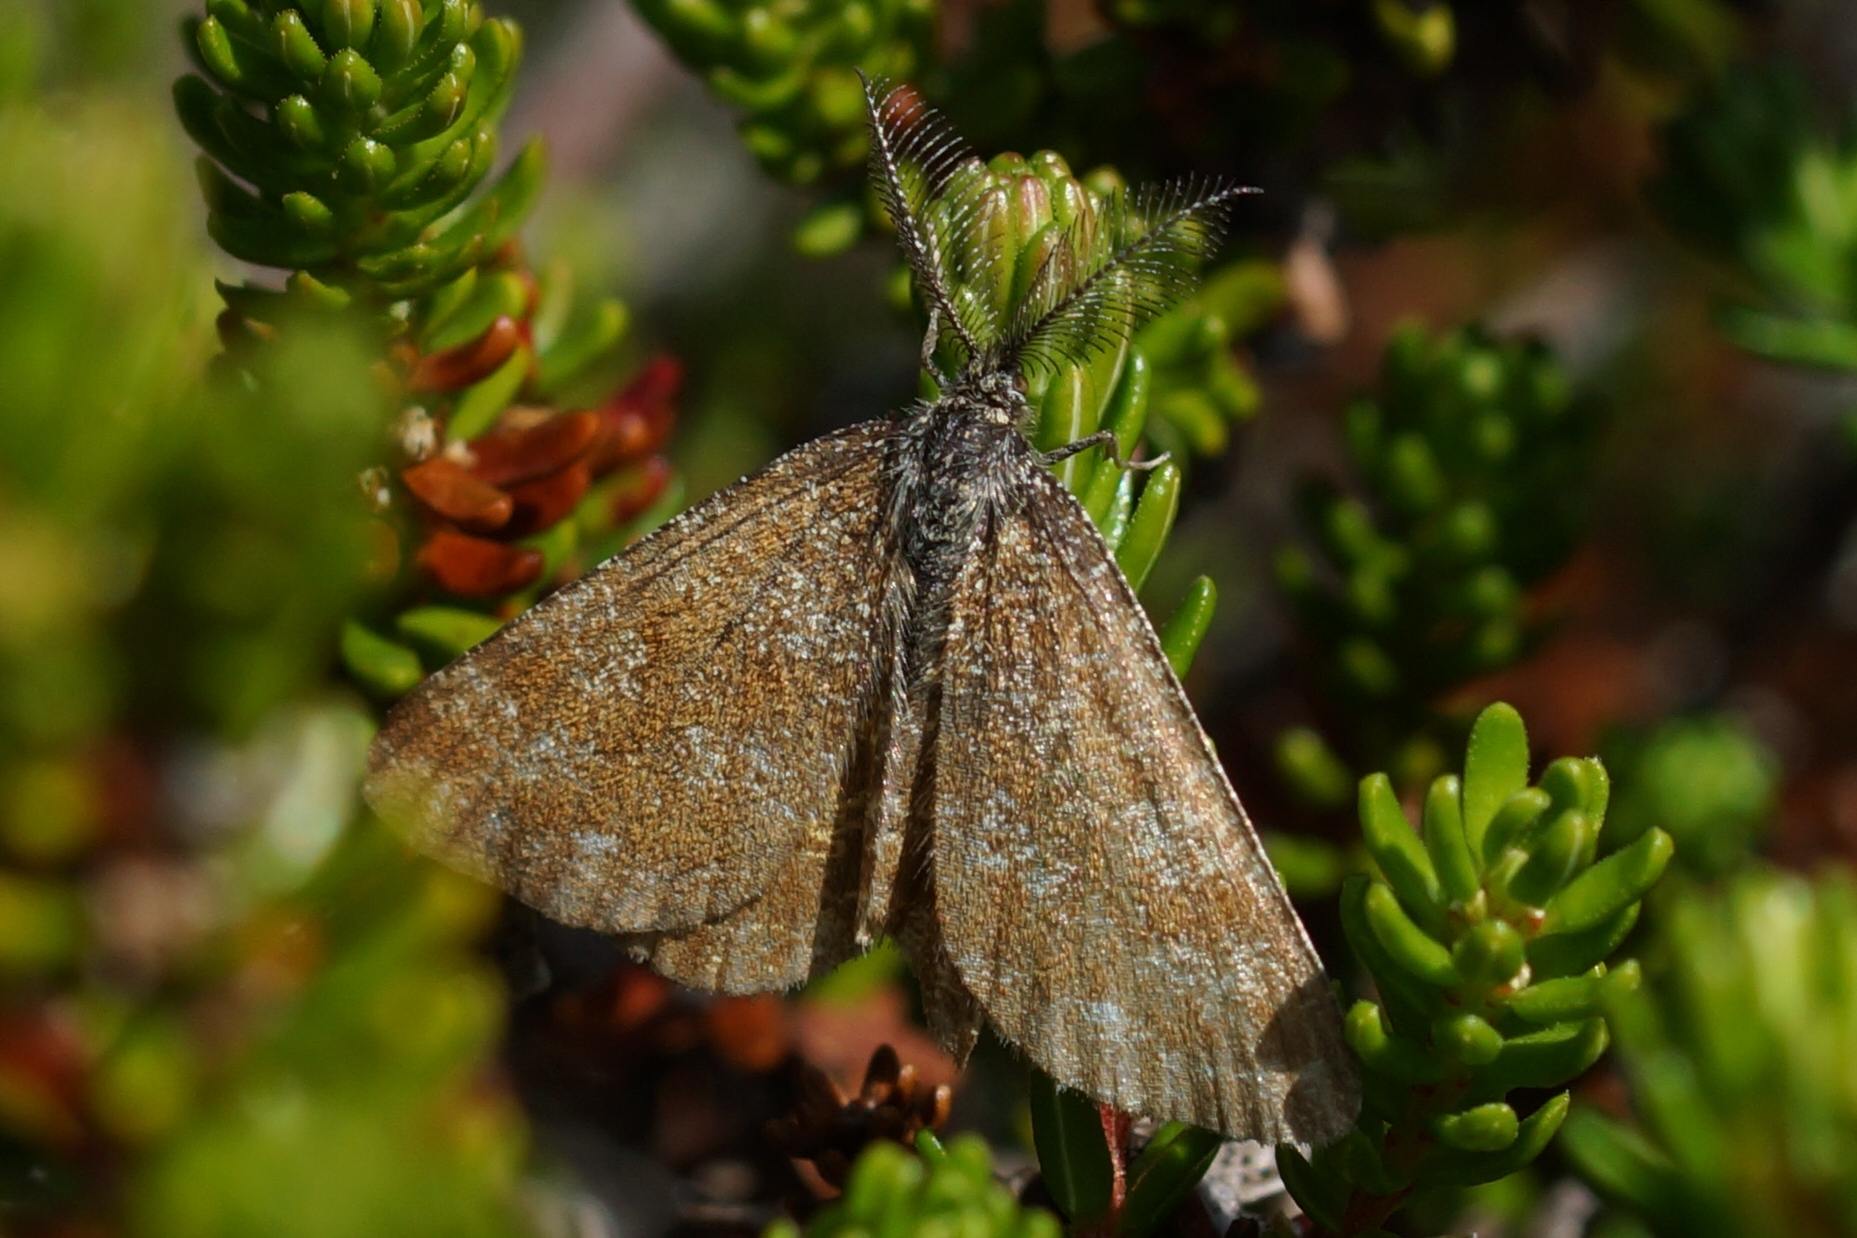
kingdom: Animalia
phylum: Arthropoda
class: Insecta
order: Lepidoptera
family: Geometridae
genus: Ematurga
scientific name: Ematurga atomaria
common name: Common heath
